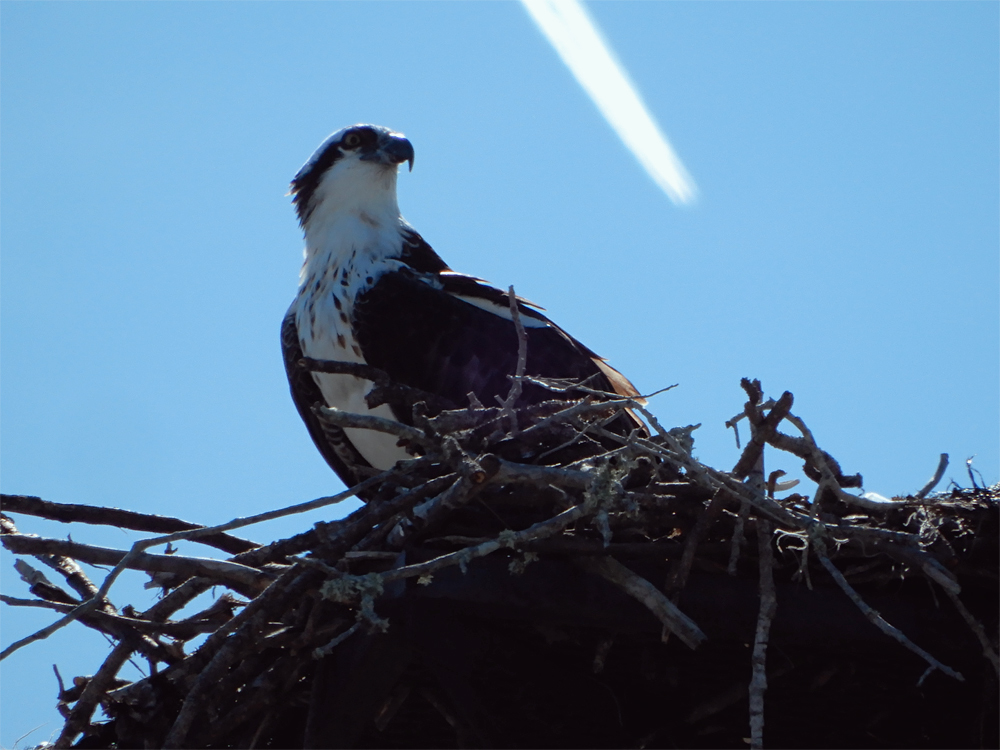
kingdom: Animalia
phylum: Chordata
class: Aves
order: Accipitriformes
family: Pandionidae
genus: Pandion
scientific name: Pandion haliaetus
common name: Osprey
